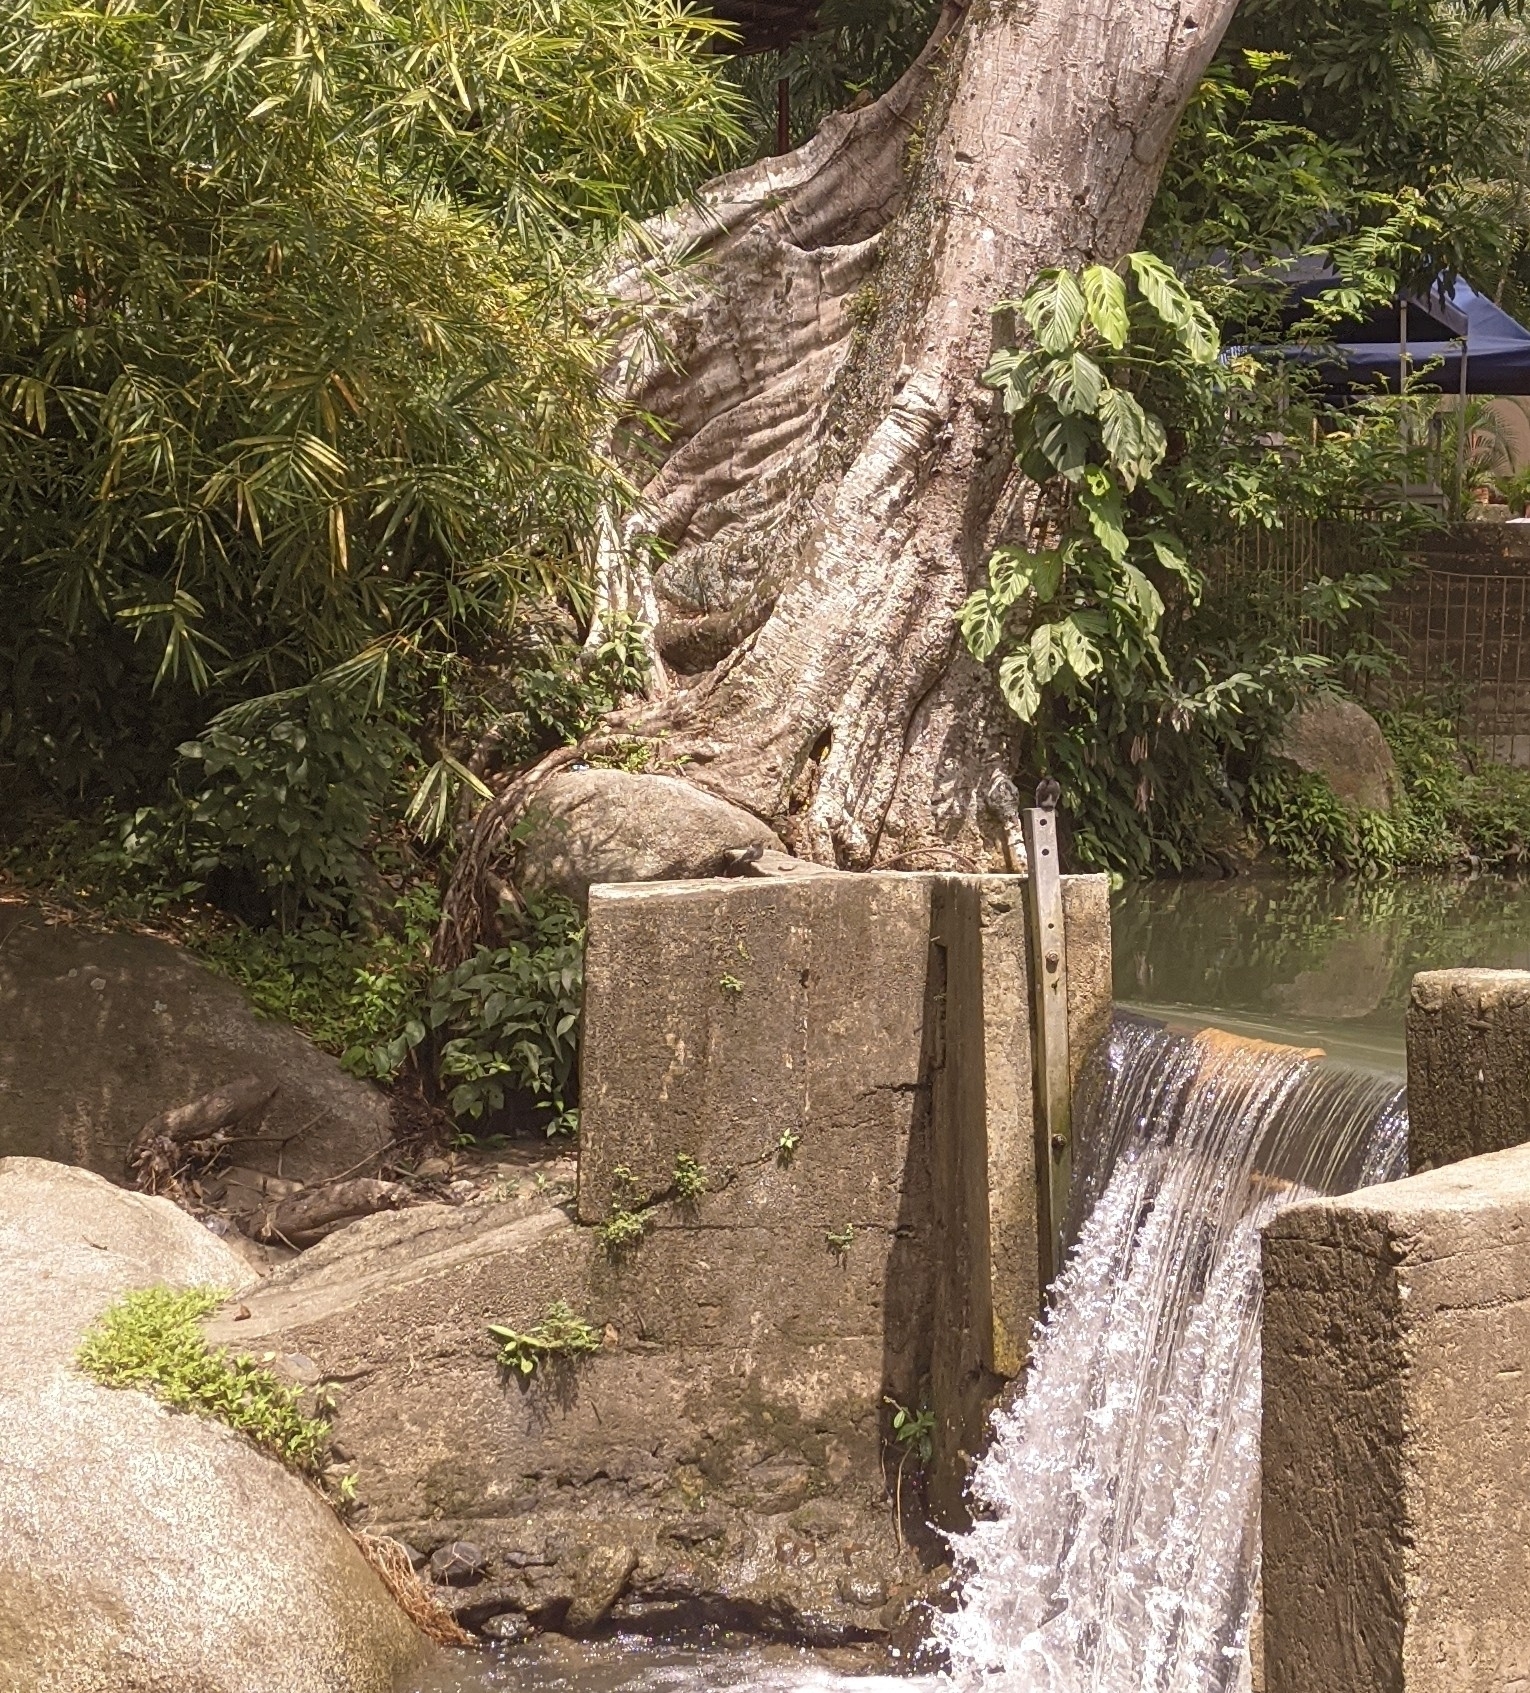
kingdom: Animalia
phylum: Chordata
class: Aves
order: Passeriformes
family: Tyrannidae
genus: Sayornis
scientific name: Sayornis nigricans
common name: Black phoebe
